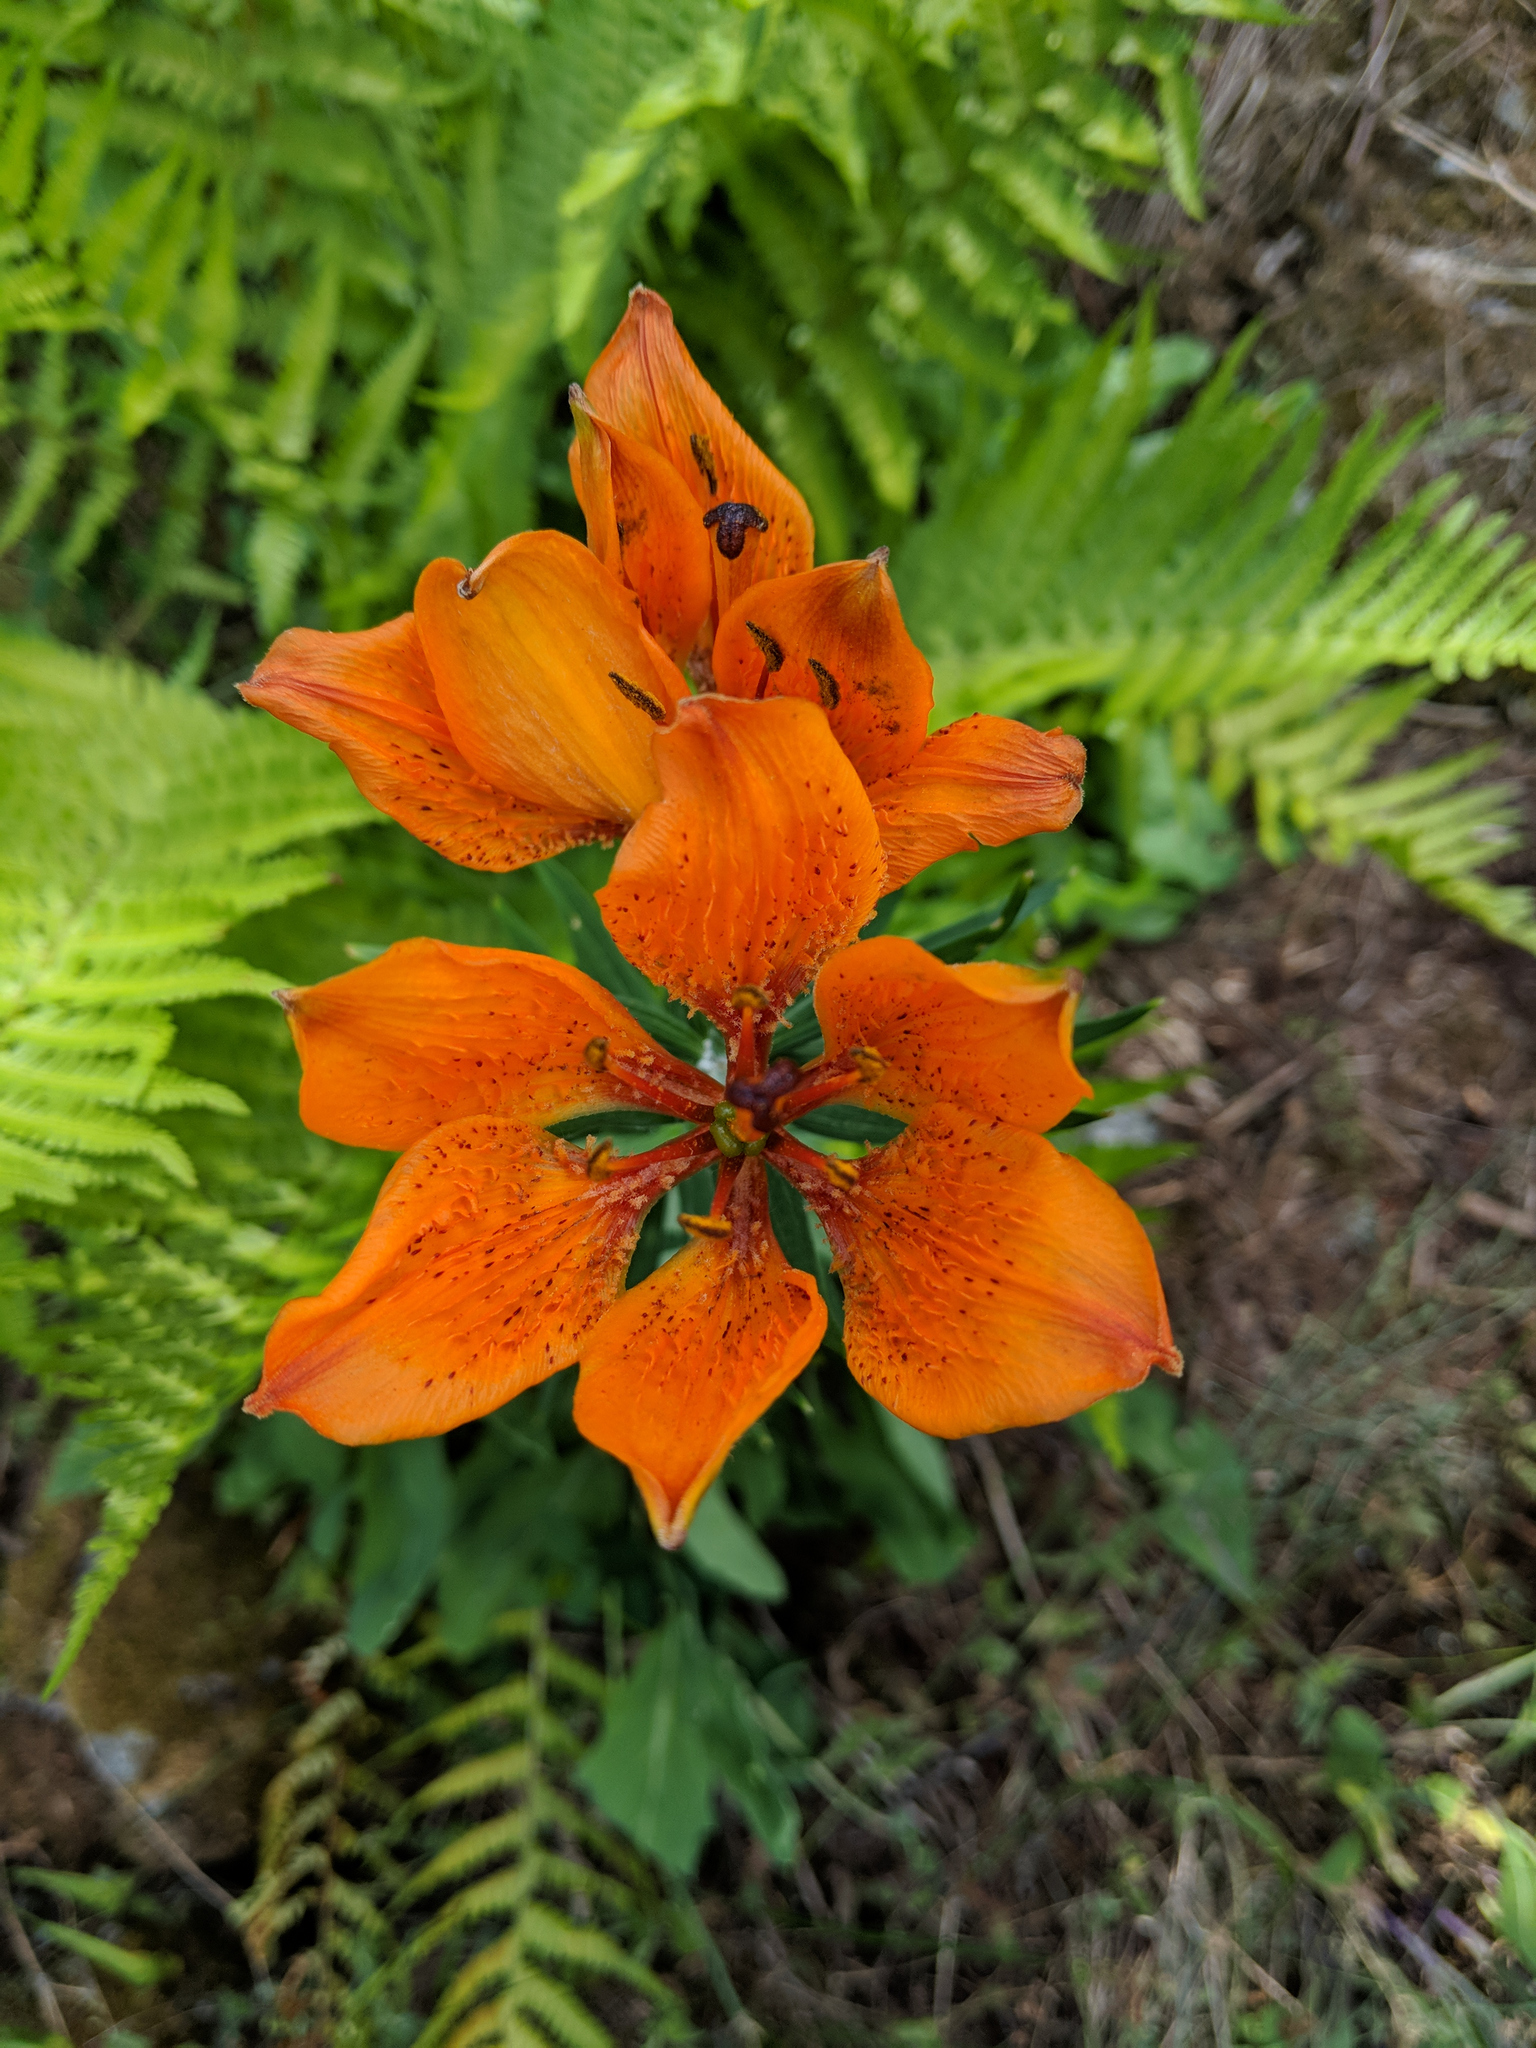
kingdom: Plantae
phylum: Tracheophyta
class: Liliopsida
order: Liliales
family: Liliaceae
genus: Lilium
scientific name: Lilium bulbiferum
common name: Orange lily
